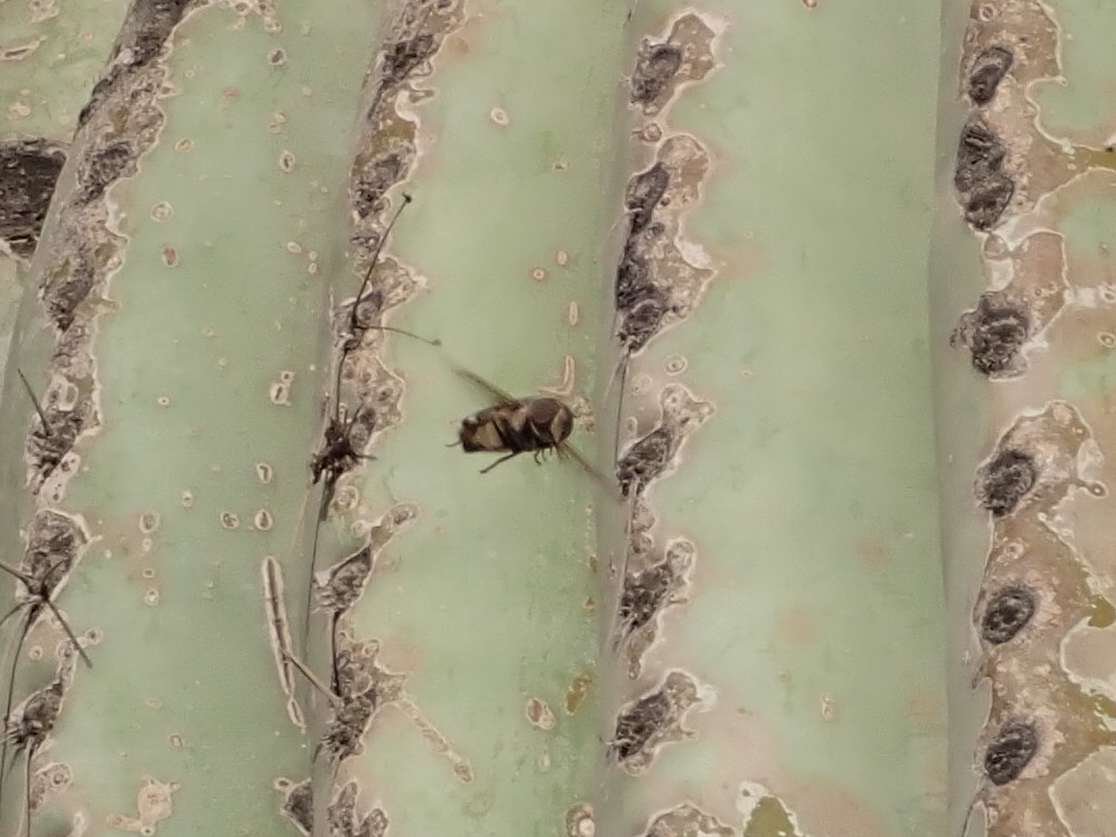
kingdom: Animalia
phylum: Arthropoda
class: Insecta
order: Diptera
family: Syrphidae
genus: Copestylum
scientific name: Copestylum isabellina
